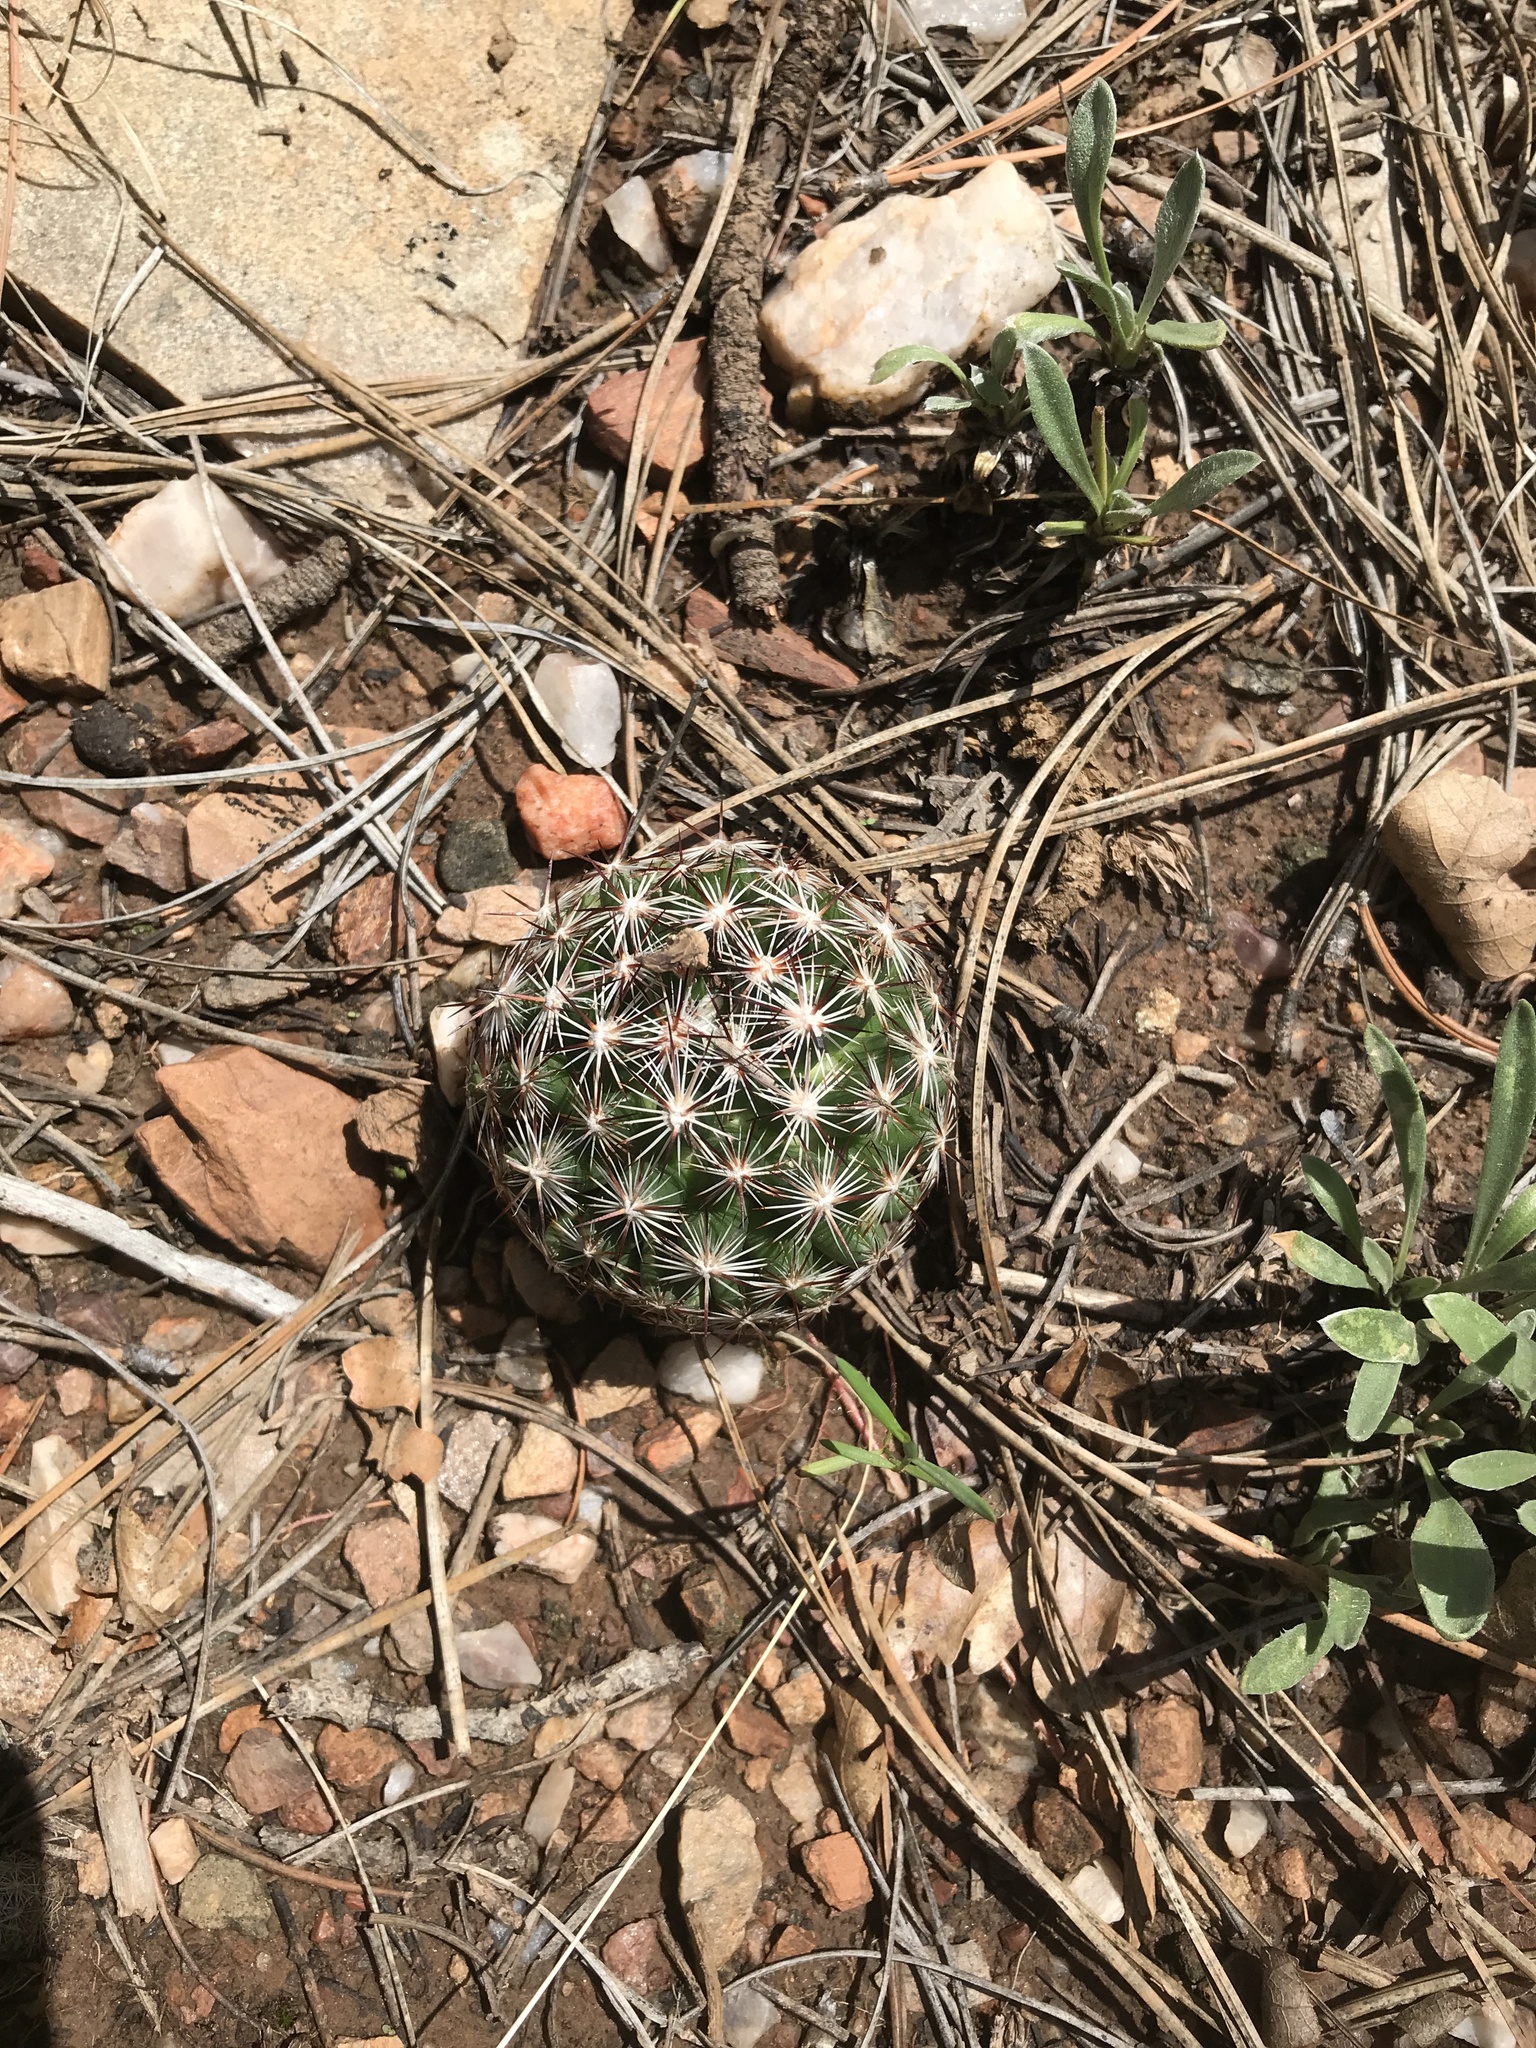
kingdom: Plantae
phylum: Tracheophyta
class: Magnoliopsida
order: Caryophyllales
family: Cactaceae
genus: Pelecyphora
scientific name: Pelecyphora vivipara
